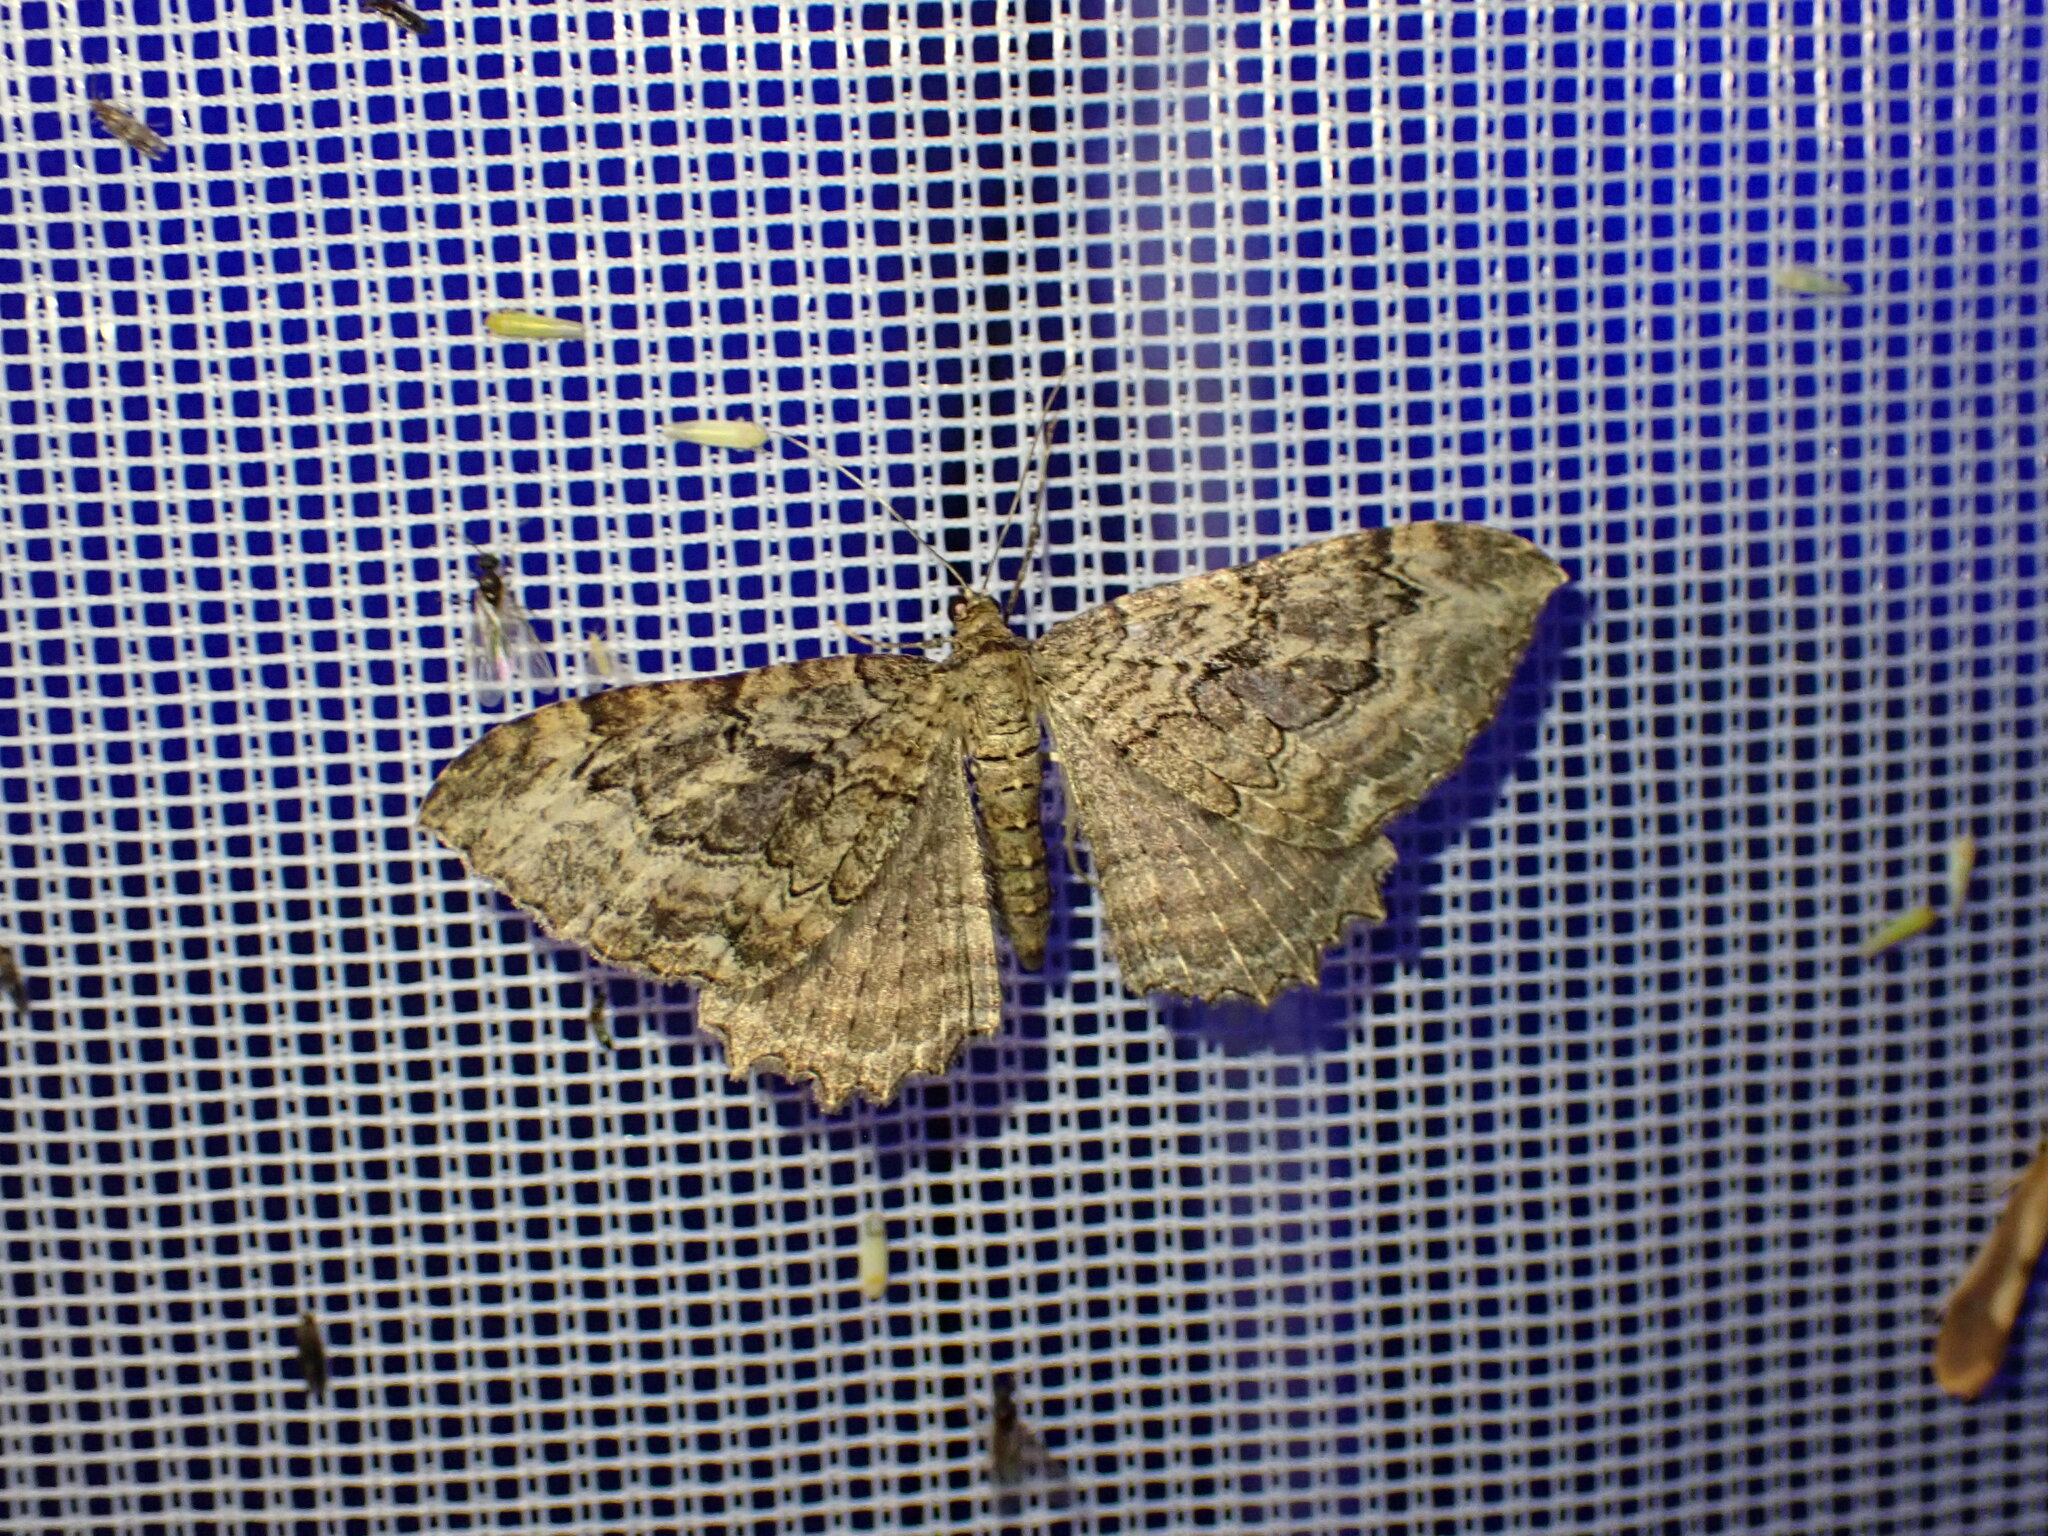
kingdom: Animalia
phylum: Arthropoda
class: Insecta
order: Lepidoptera
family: Geometridae
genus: Rheumaptera
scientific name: Rheumaptera
